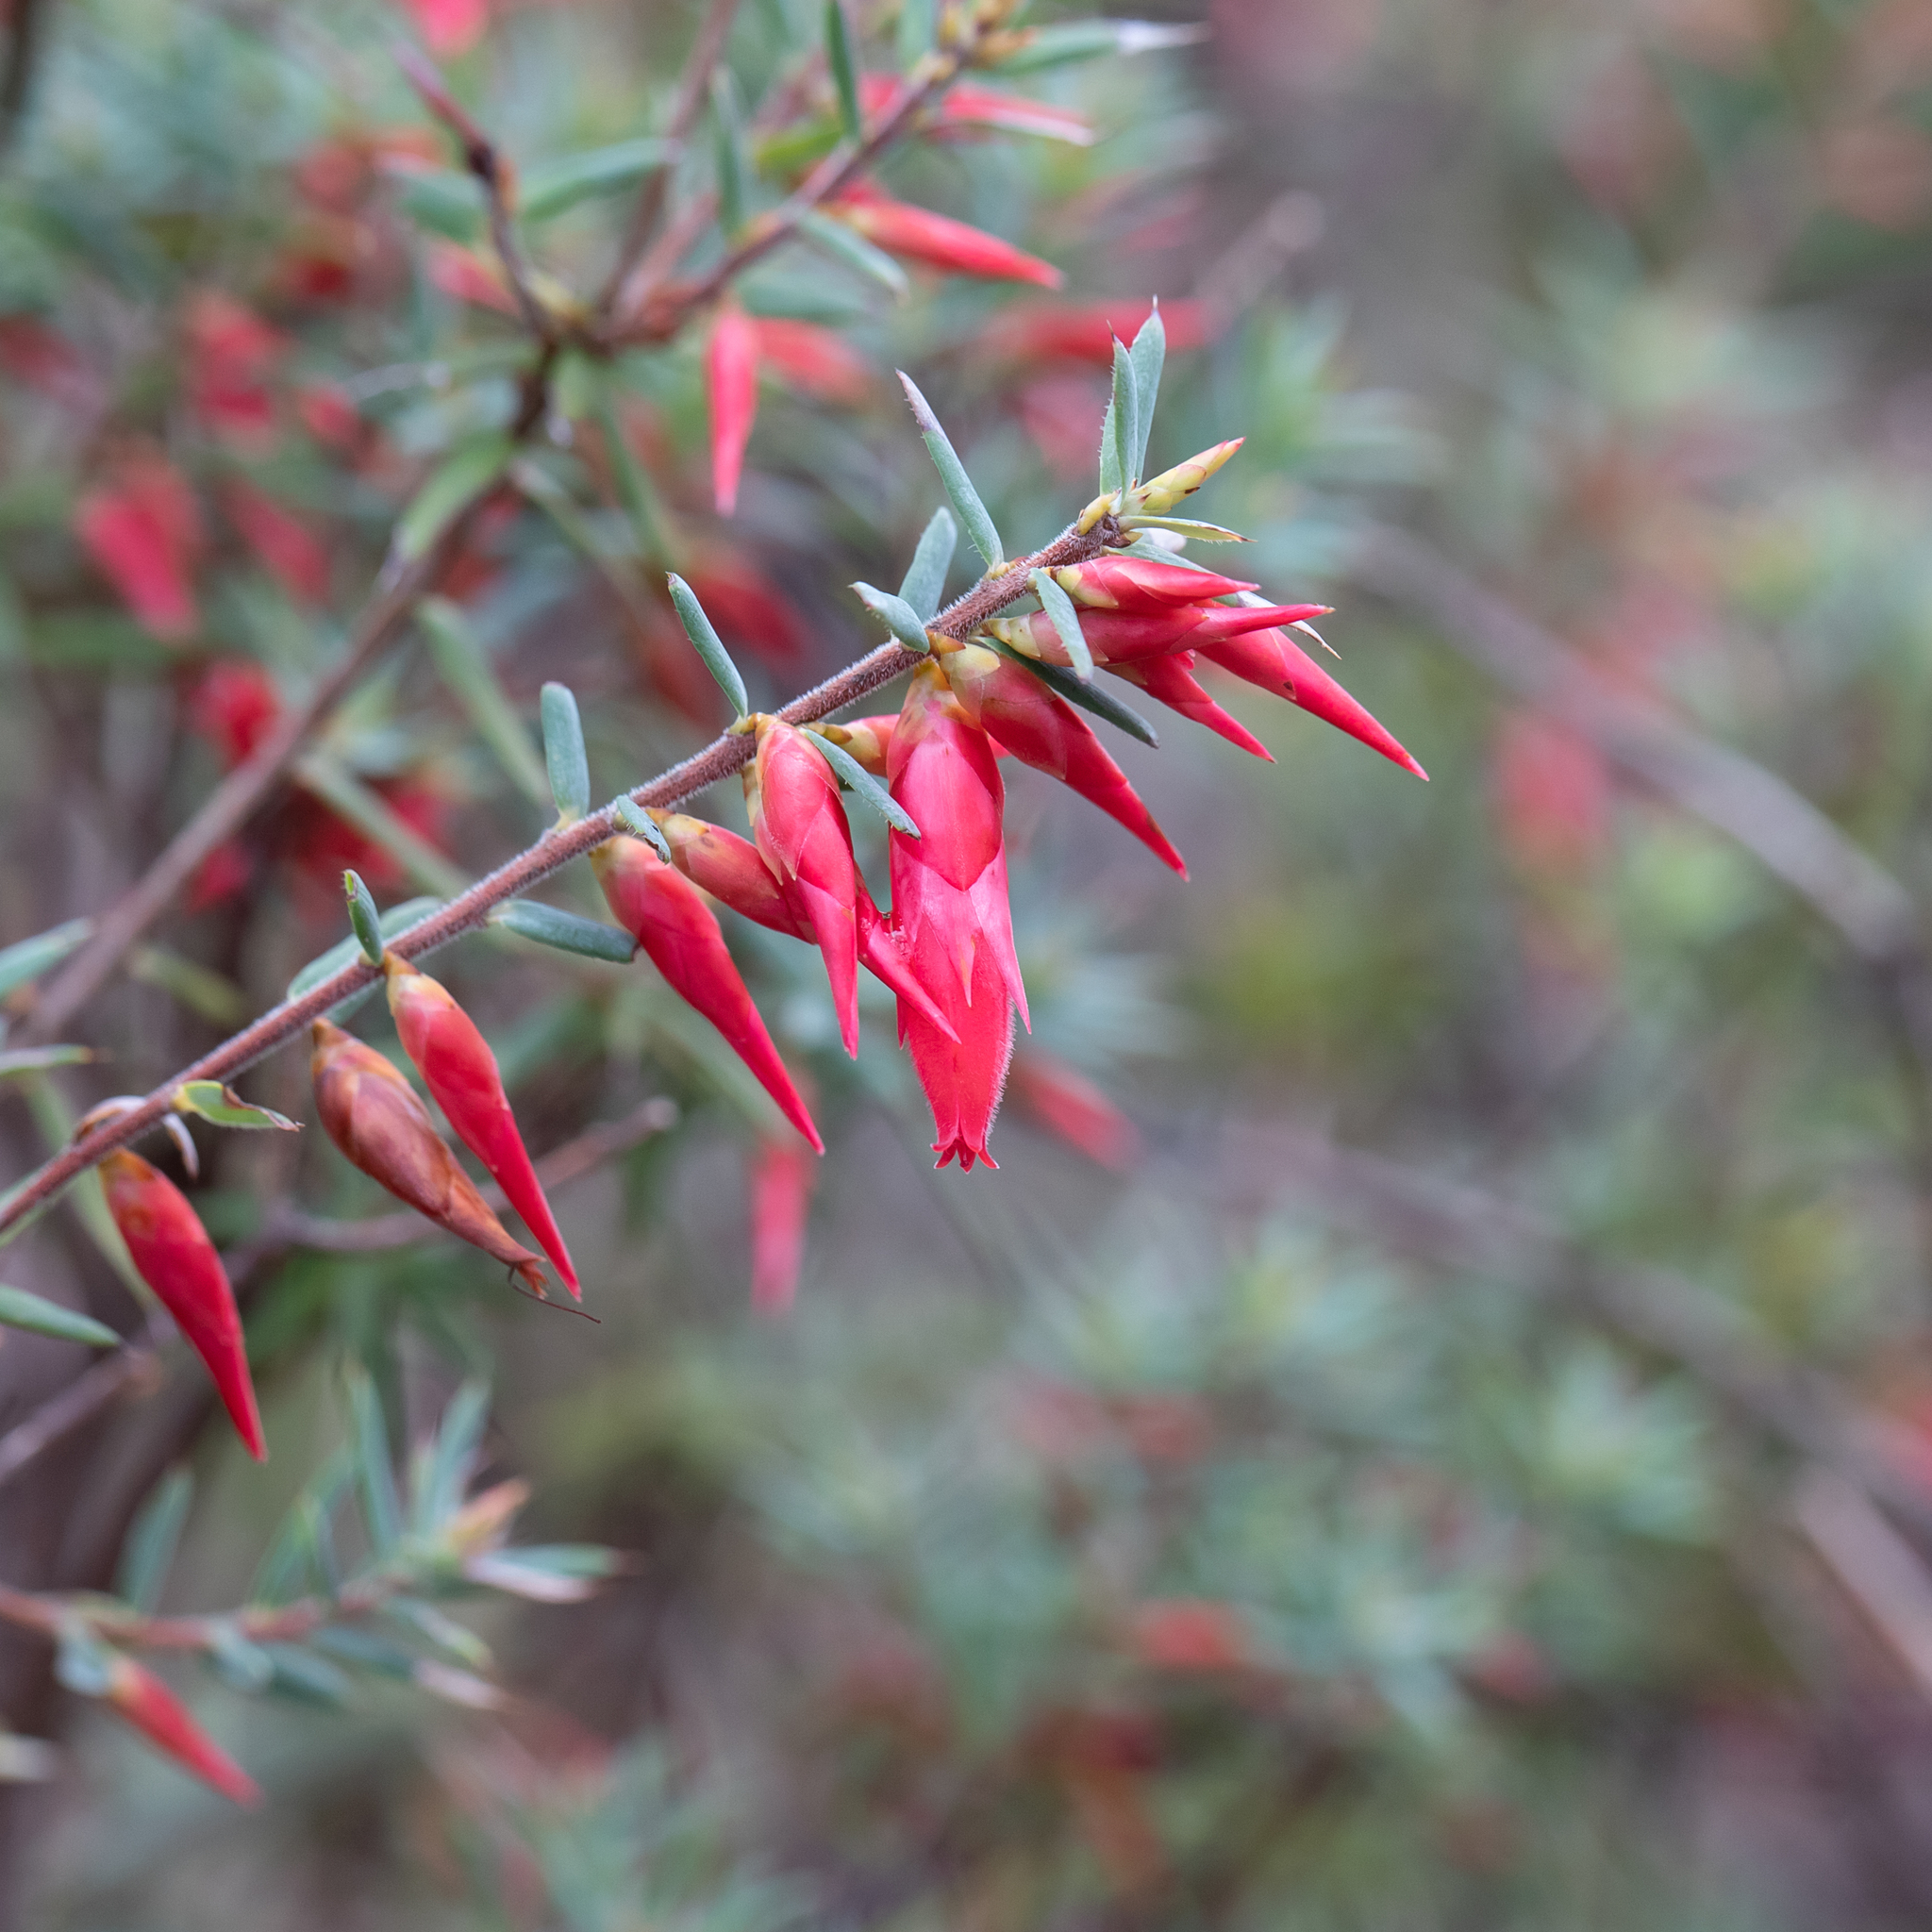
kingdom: Plantae
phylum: Tracheophyta
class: Magnoliopsida
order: Ericales
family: Ericaceae
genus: Stenanthera
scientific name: Stenanthera conostephioides
